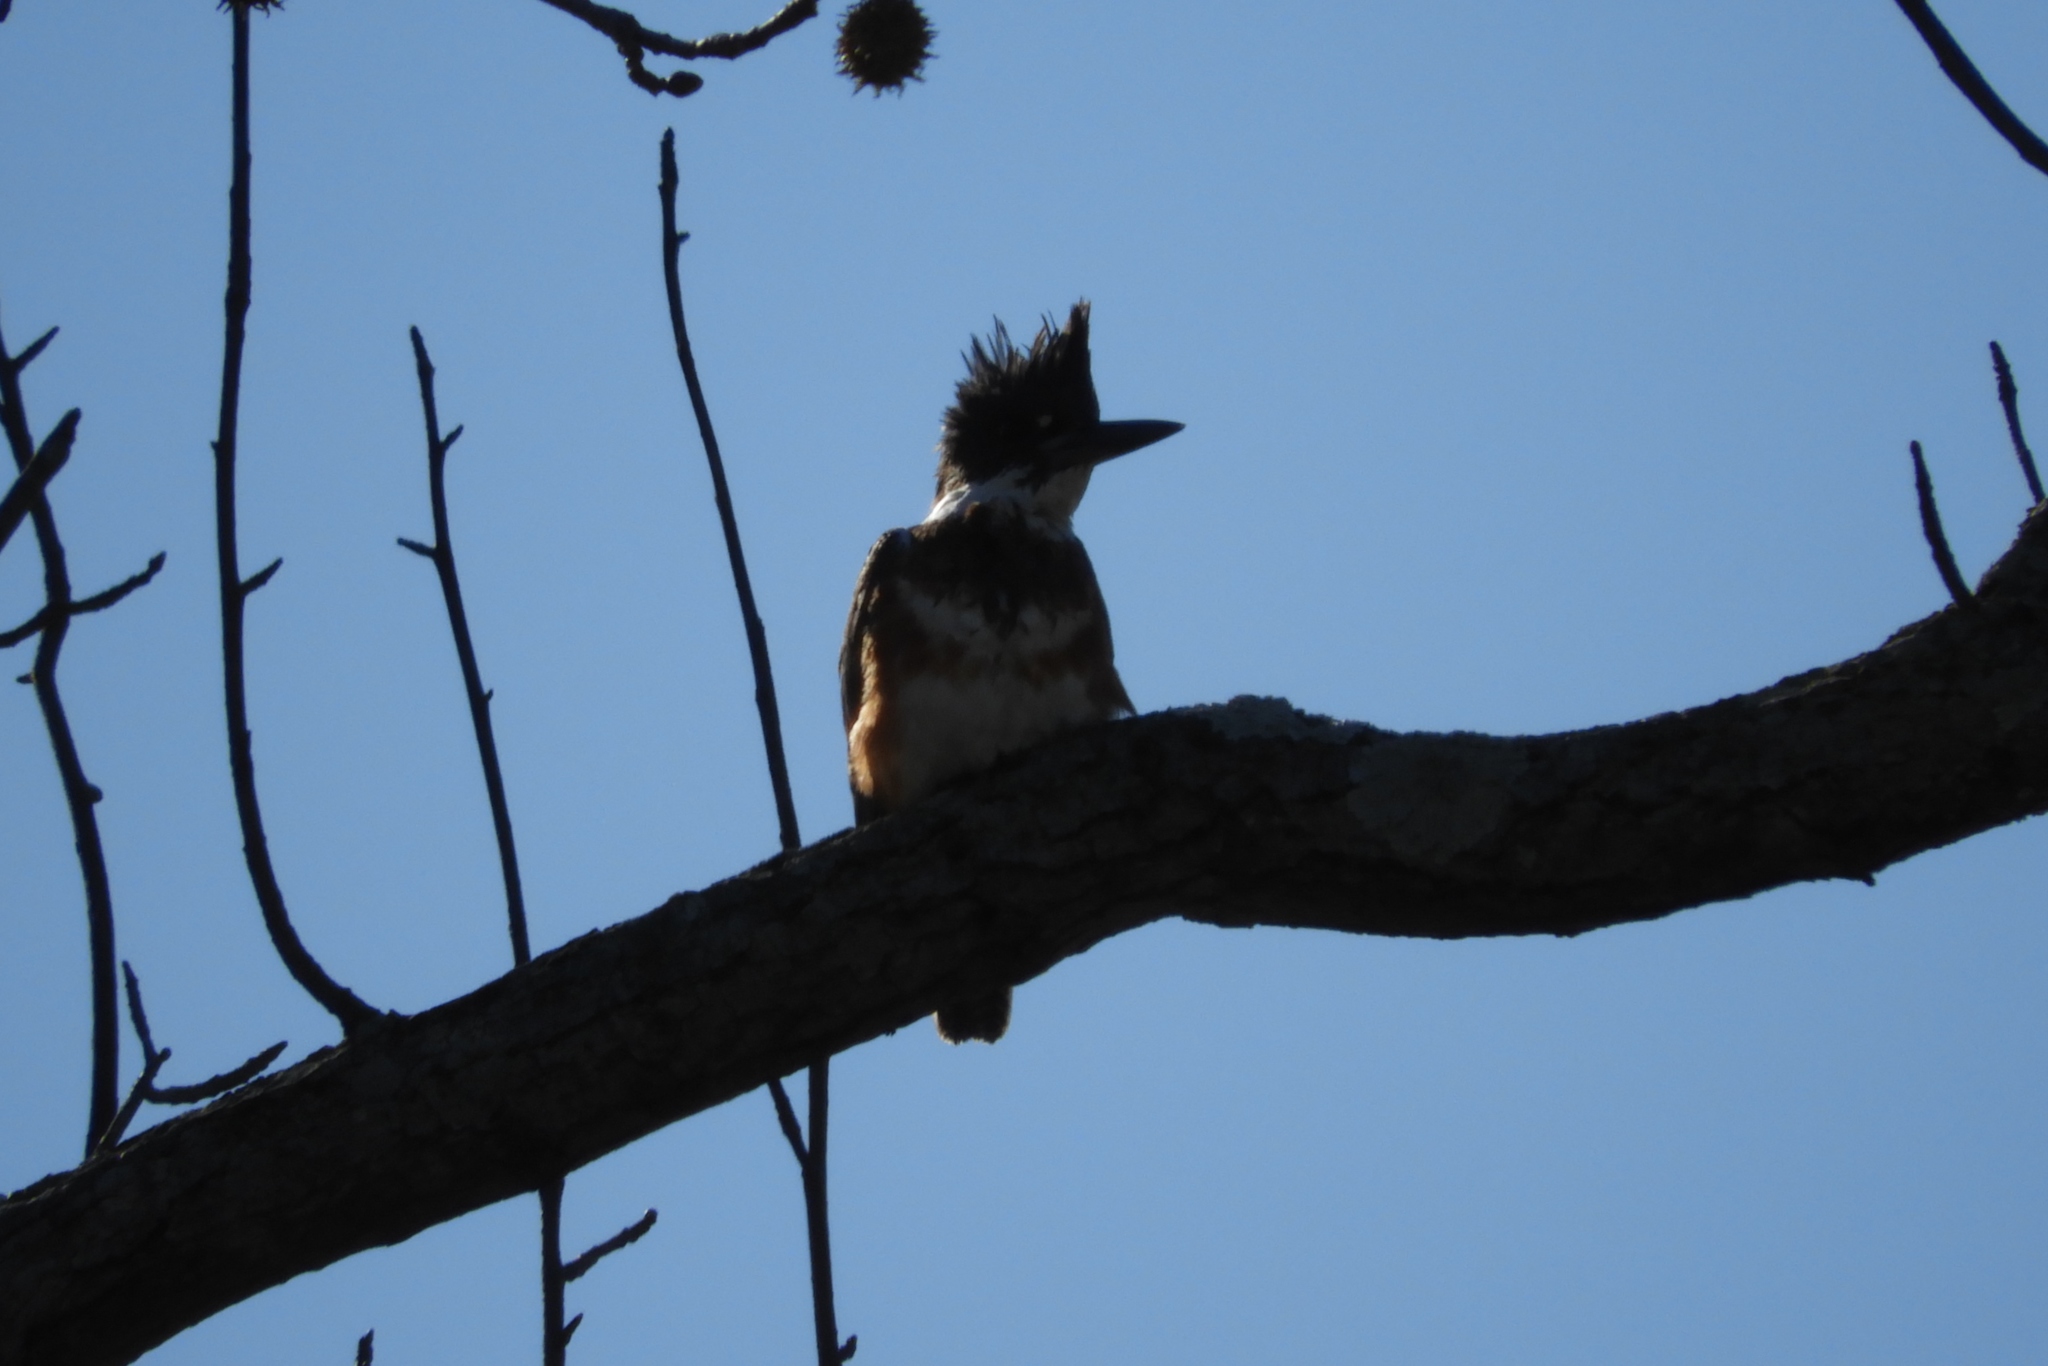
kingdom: Animalia
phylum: Chordata
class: Aves
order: Coraciiformes
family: Alcedinidae
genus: Megaceryle
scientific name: Megaceryle alcyon
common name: Belted kingfisher
